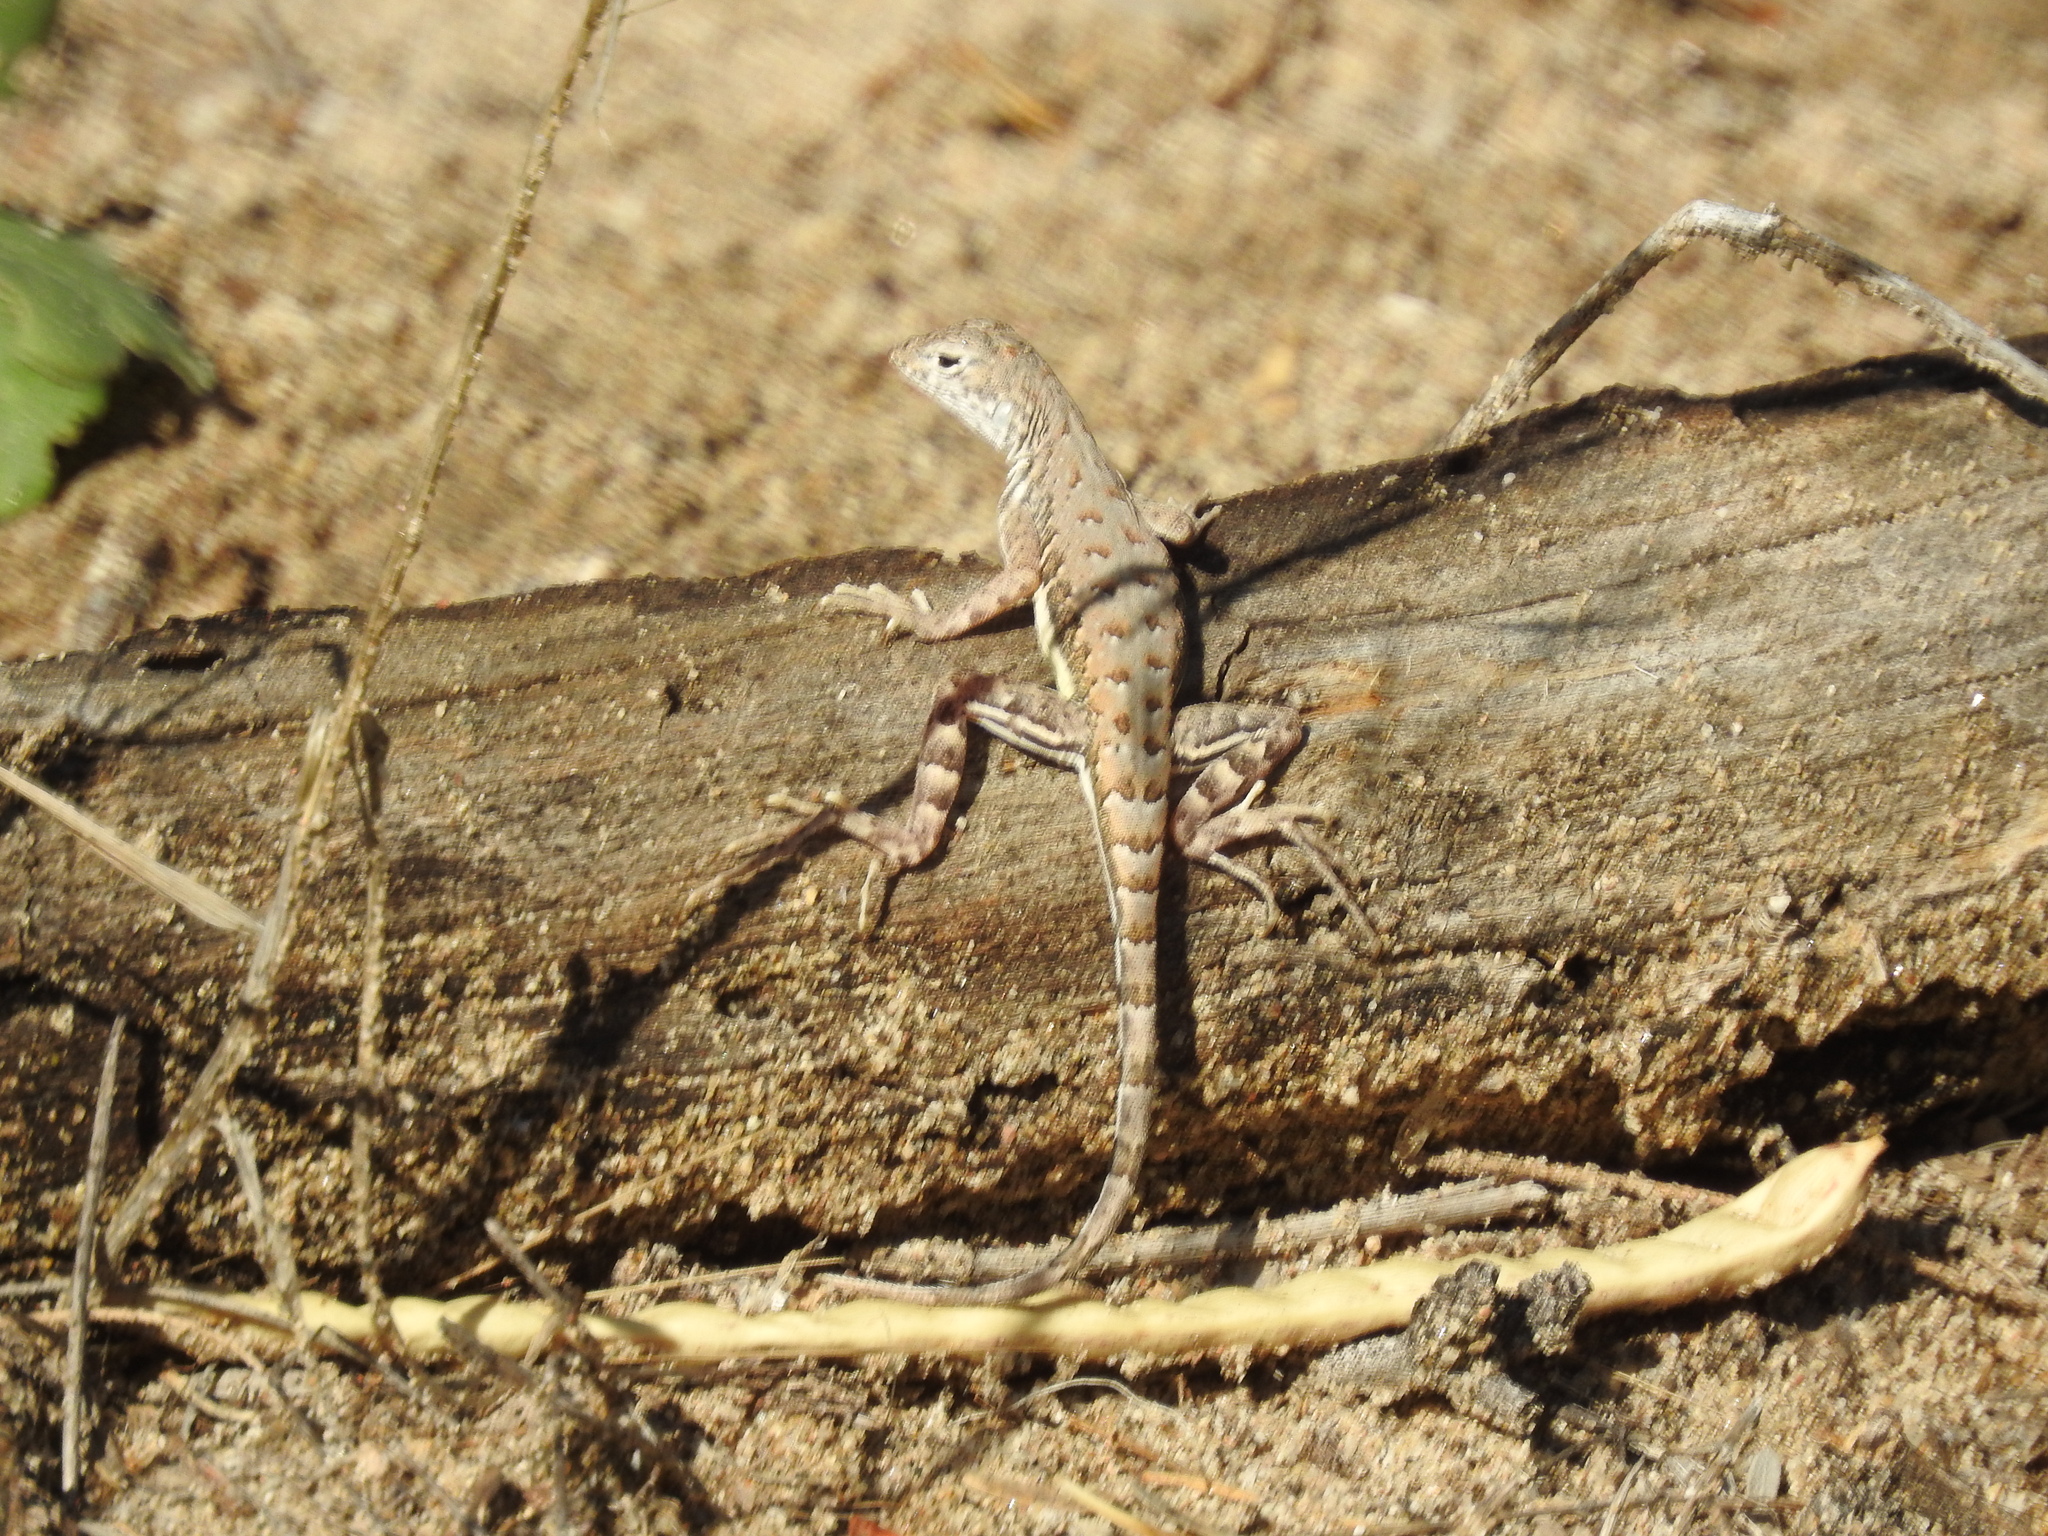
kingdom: Animalia
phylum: Chordata
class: Squamata
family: Phrynosomatidae
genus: Callisaurus
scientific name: Callisaurus draconoides
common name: Zebra-tailed lizard
